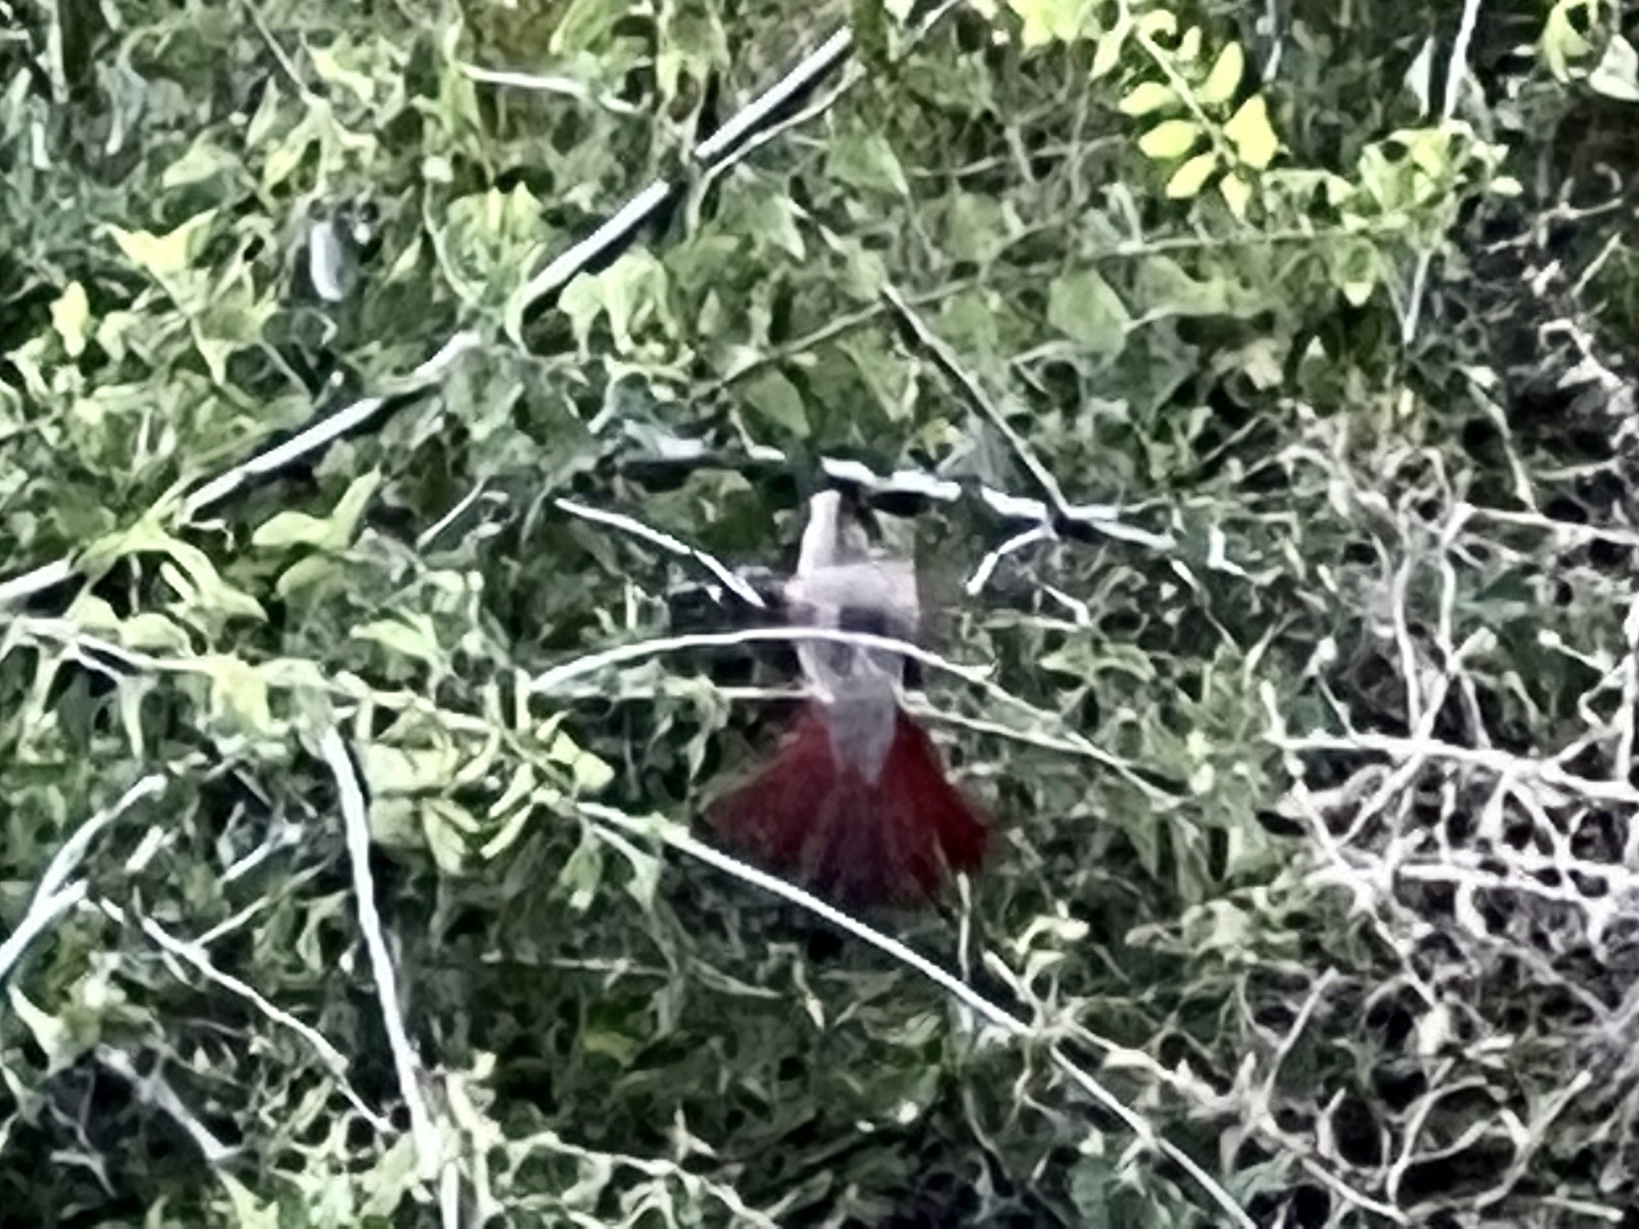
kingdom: Animalia
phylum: Chordata
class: Aves
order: Passeriformes
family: Cardinalidae
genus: Cardinalis
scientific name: Cardinalis sinuatus
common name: Pyrrhuloxia
